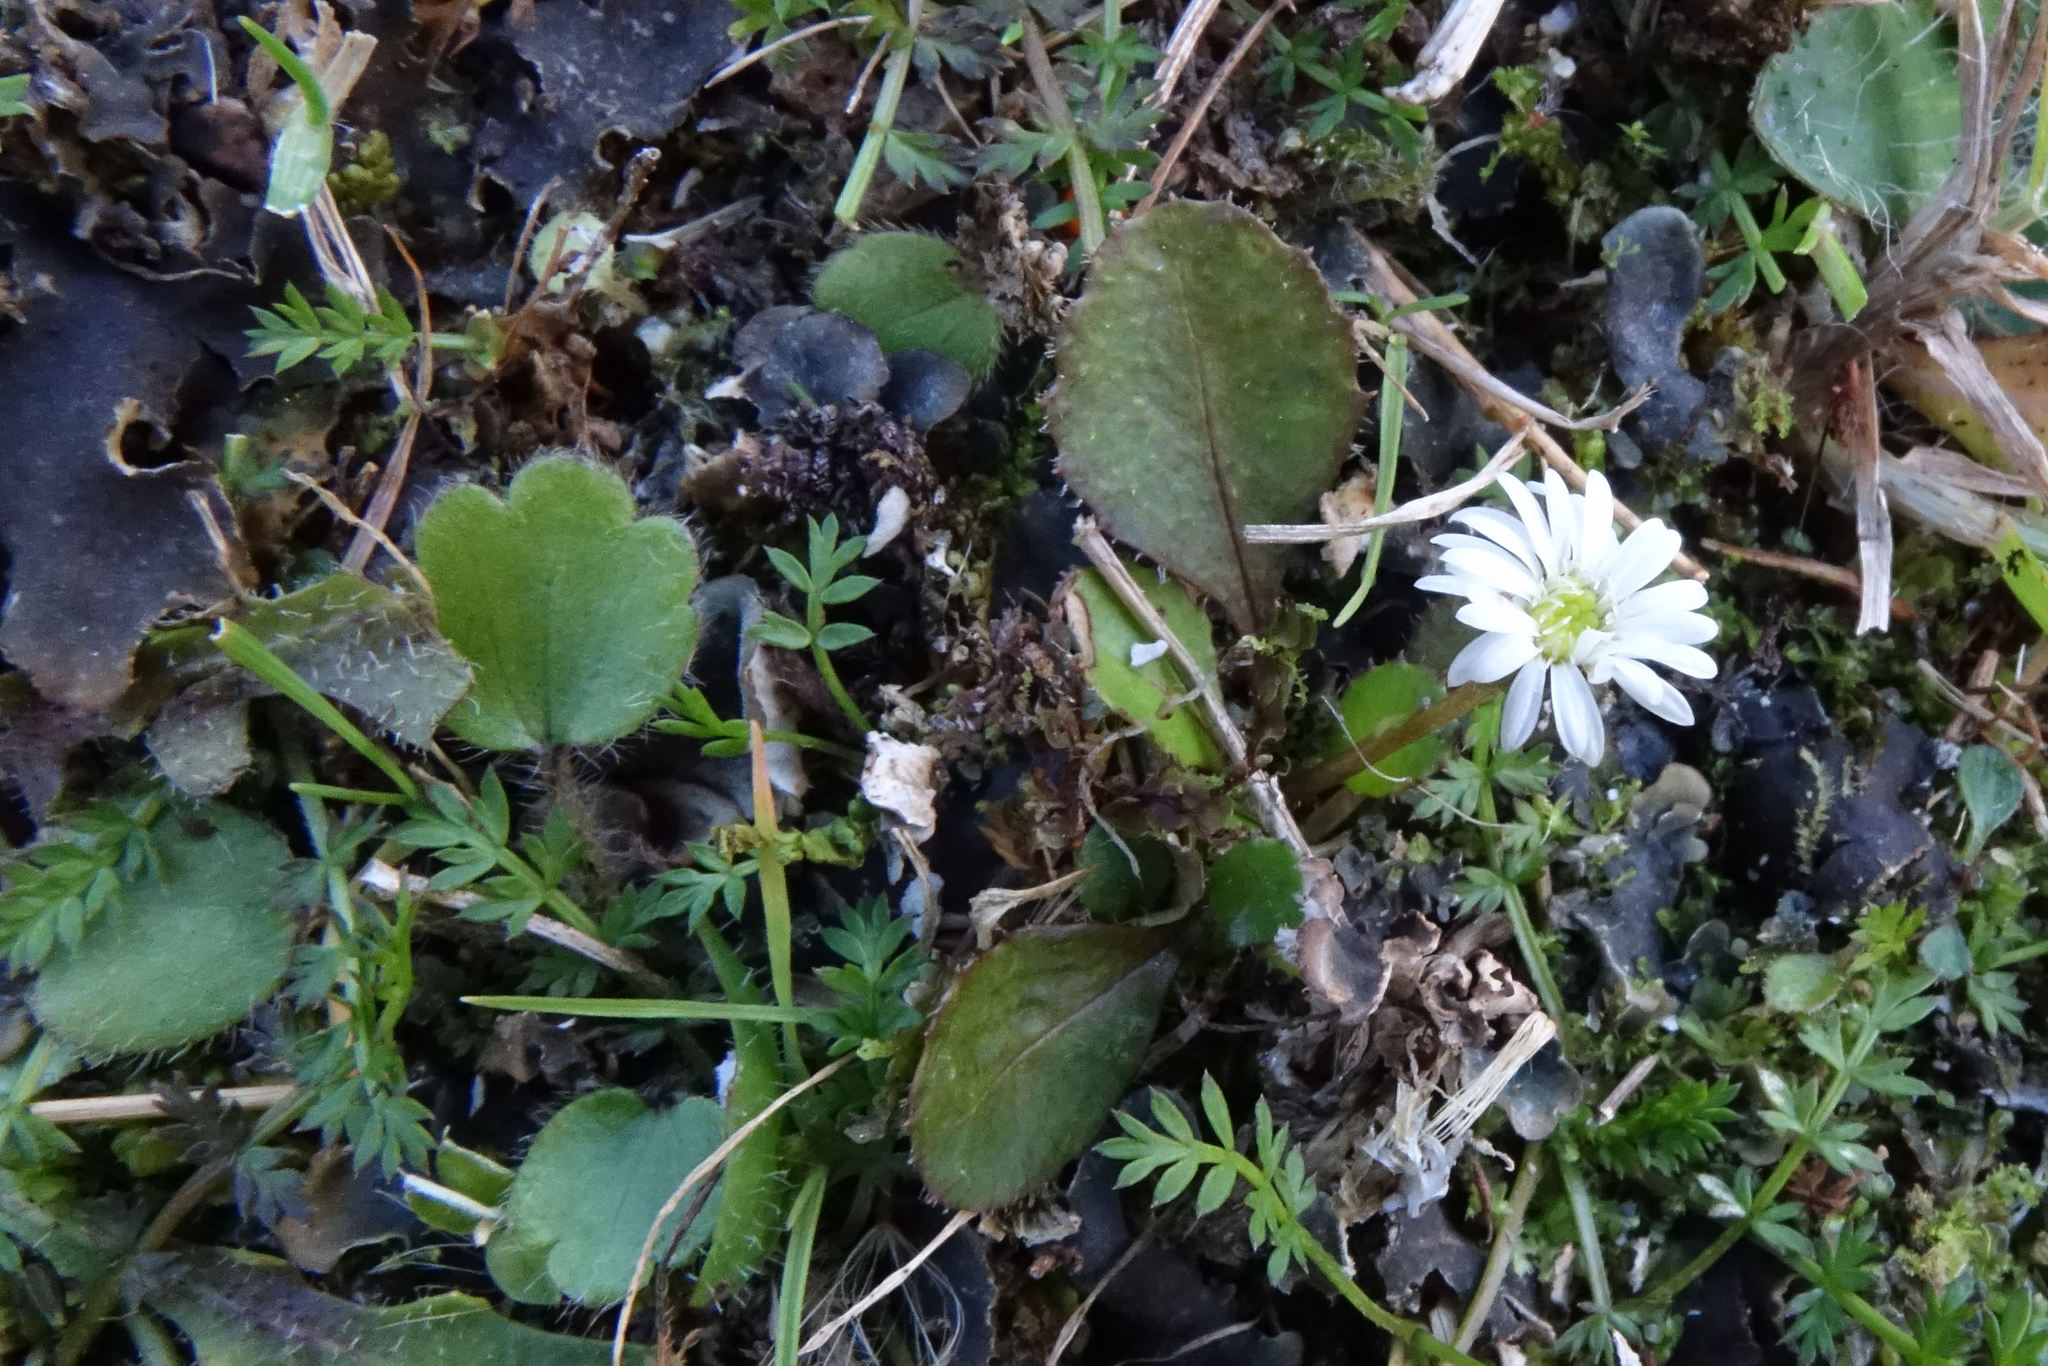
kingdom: Plantae
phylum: Tracheophyta
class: Magnoliopsida
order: Asterales
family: Asteraceae
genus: Lagenophora
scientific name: Lagenophora pumila
